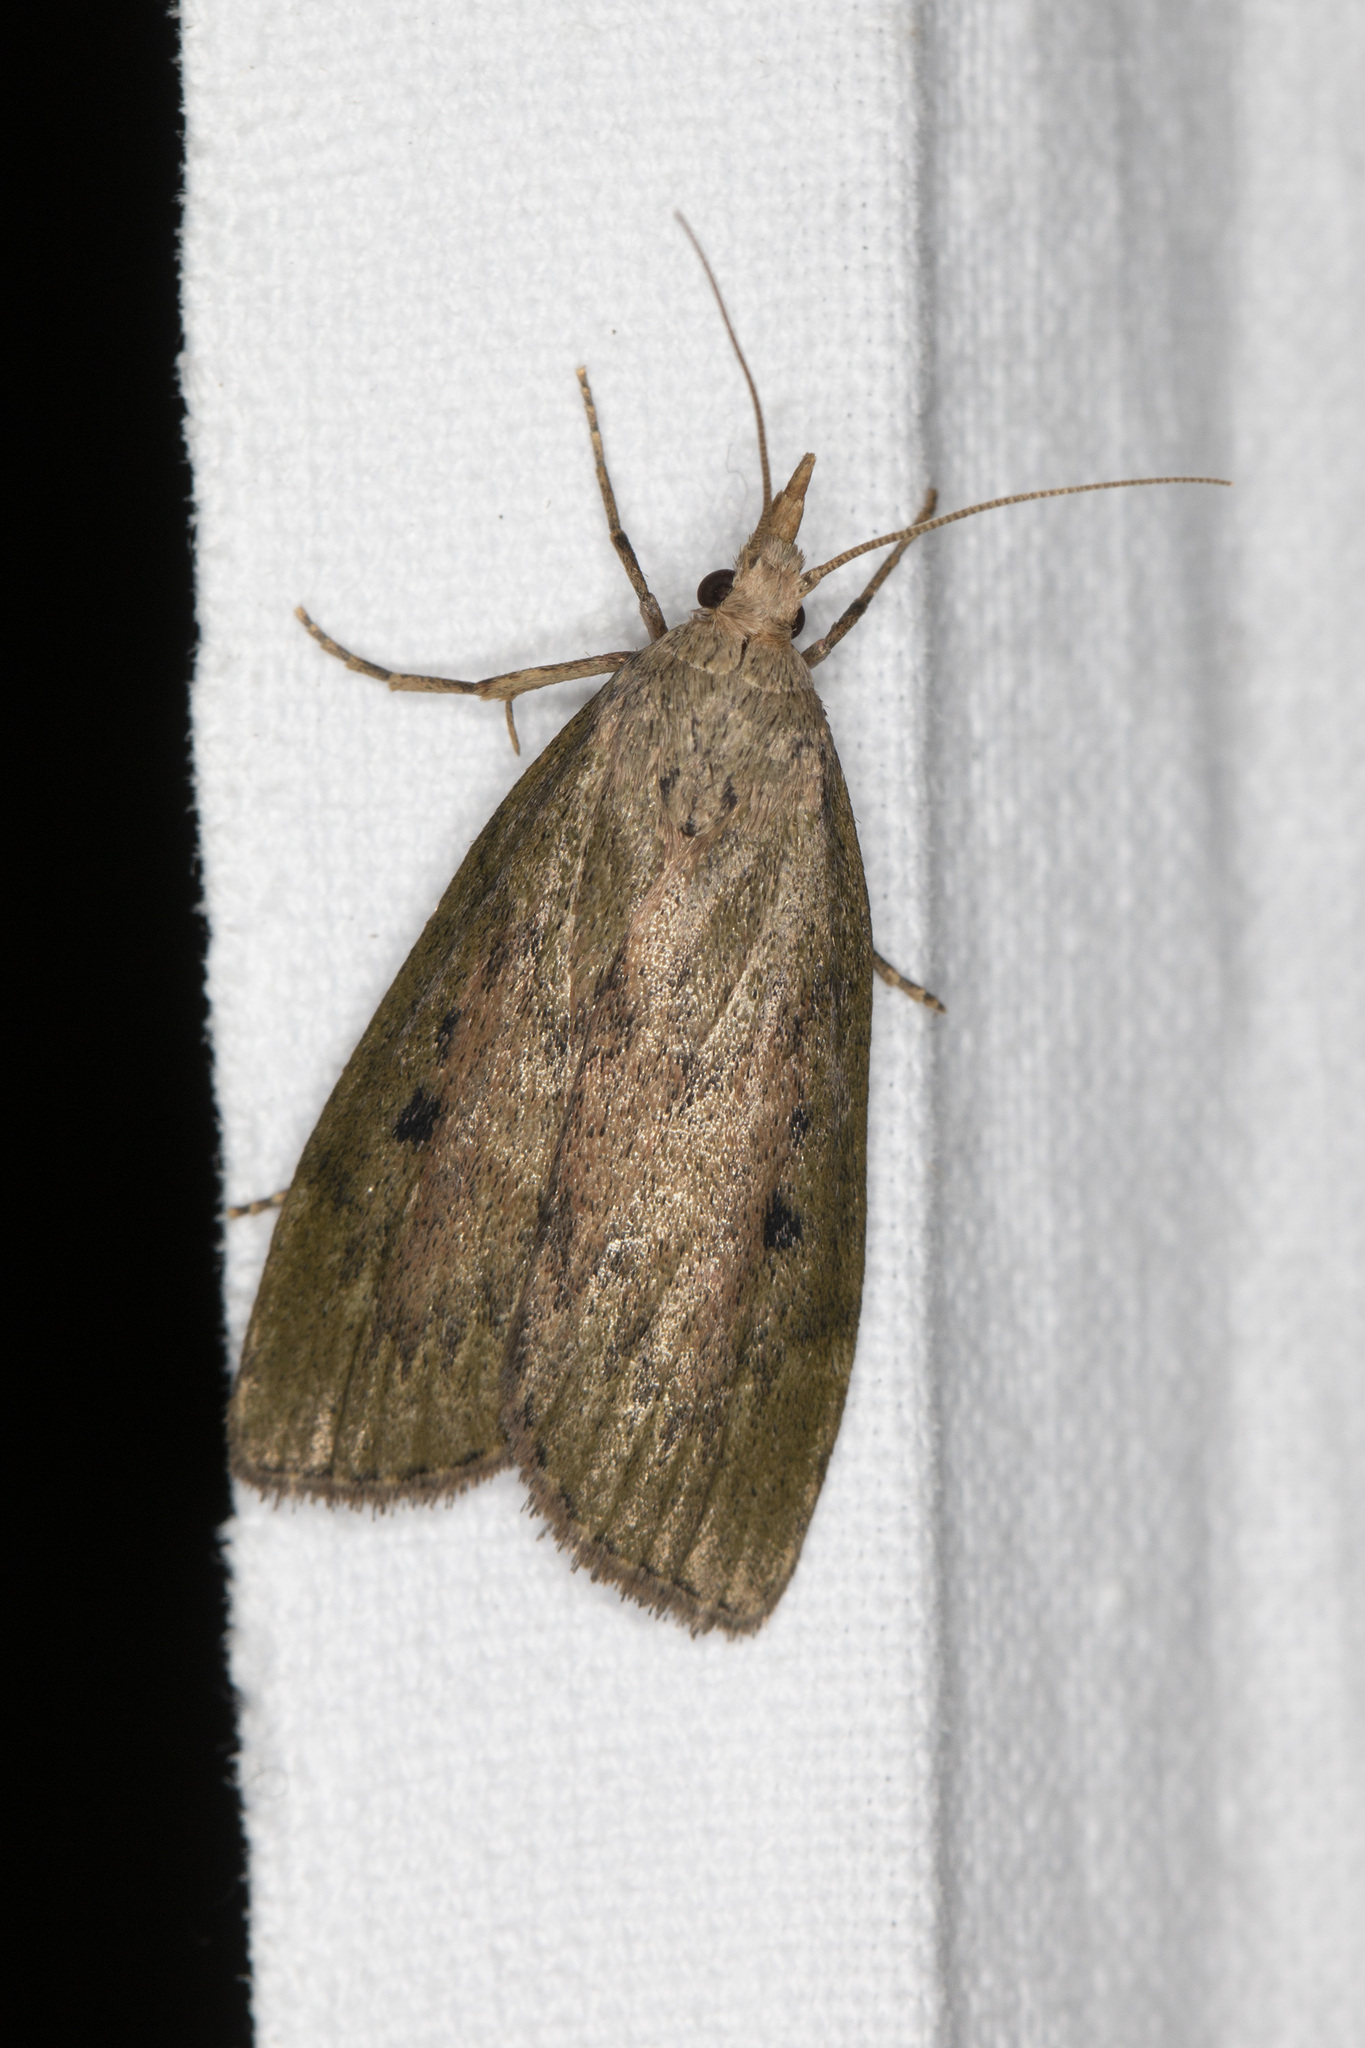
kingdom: Animalia
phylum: Arthropoda
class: Insecta
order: Lepidoptera
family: Pyralidae
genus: Aphomia
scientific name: Aphomia sociella
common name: Bee moth
